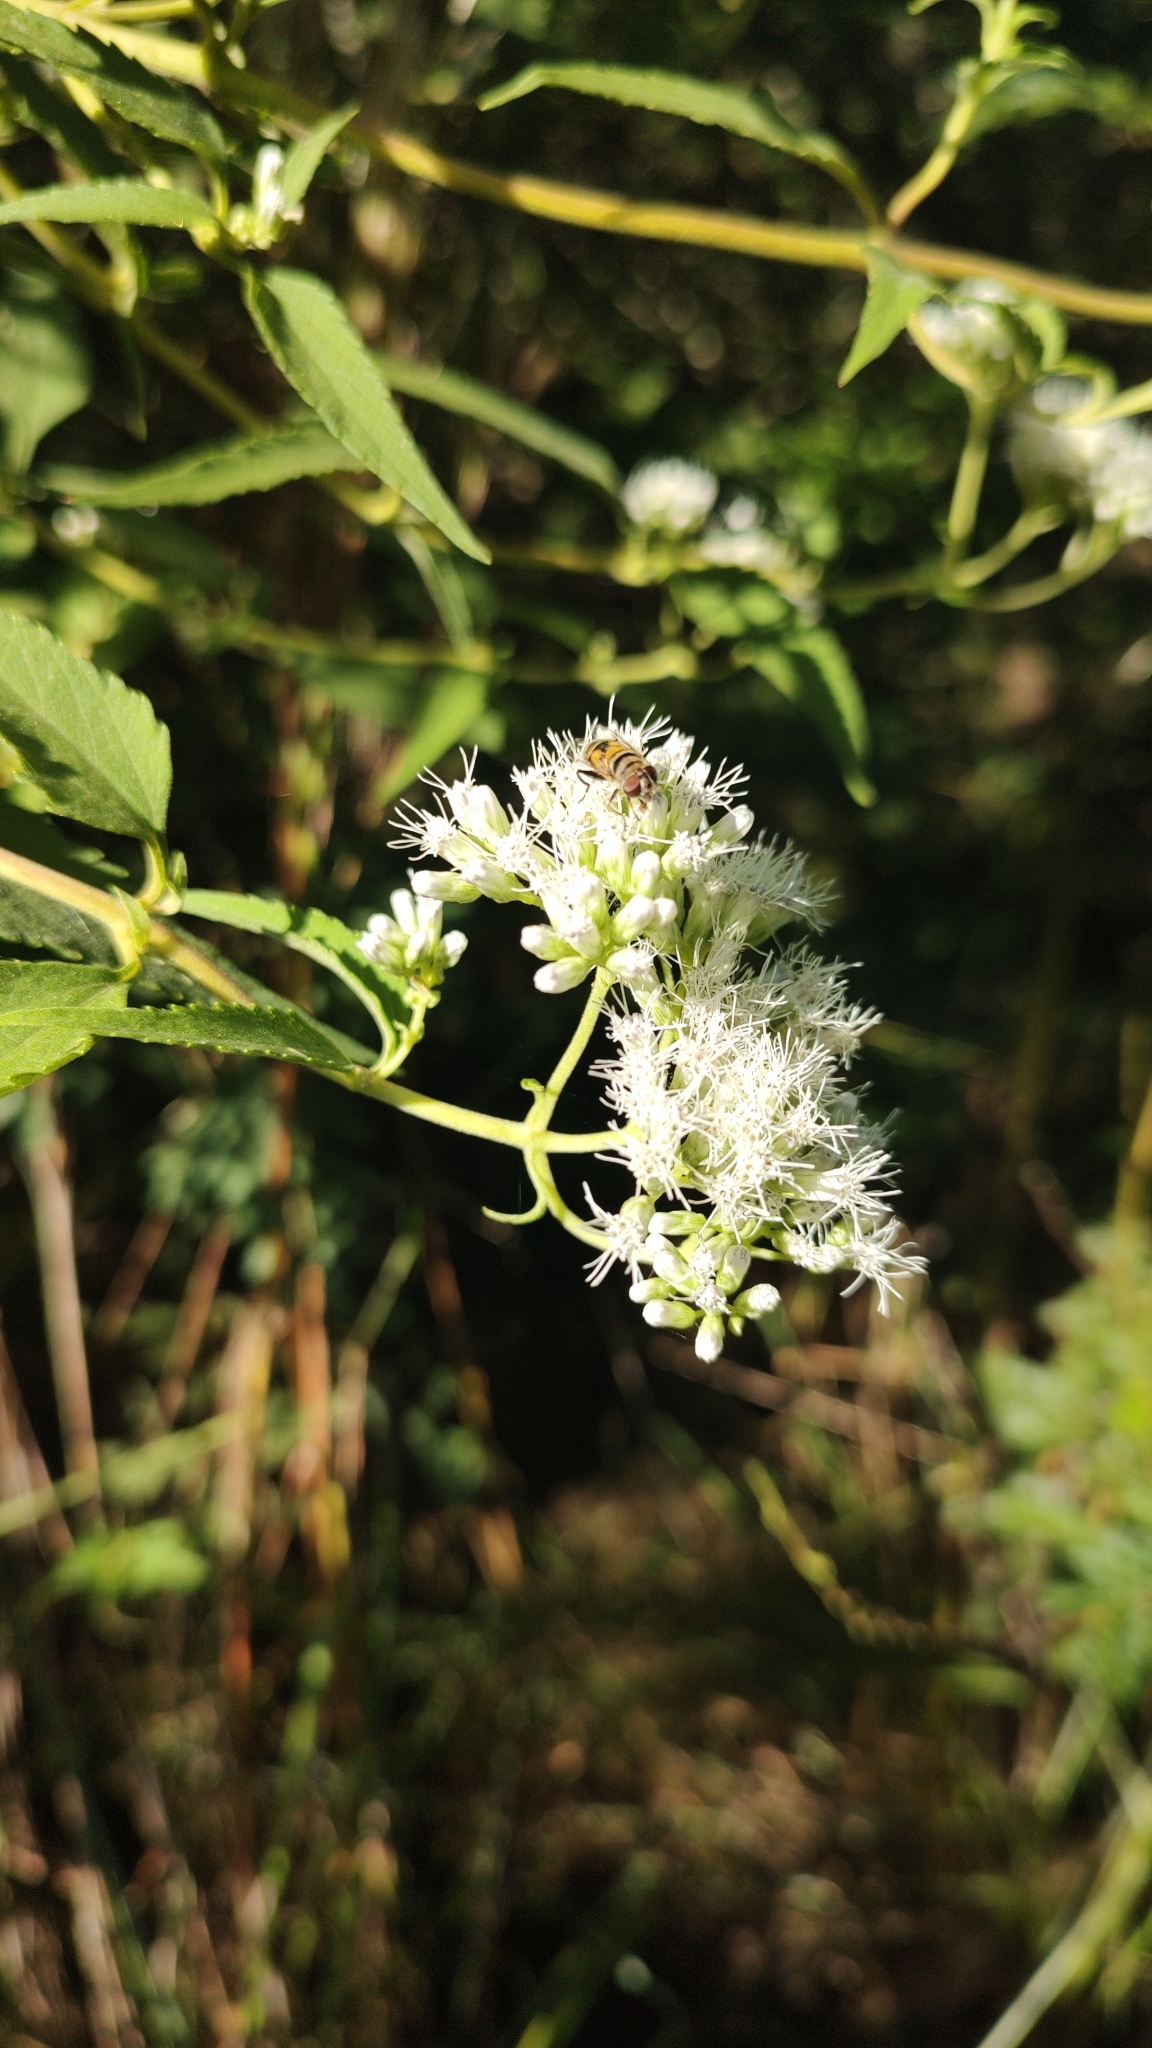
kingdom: Plantae
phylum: Tracheophyta
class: Magnoliopsida
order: Asterales
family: Asteraceae
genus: Austroeupatorium
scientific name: Austroeupatorium inulifolium
